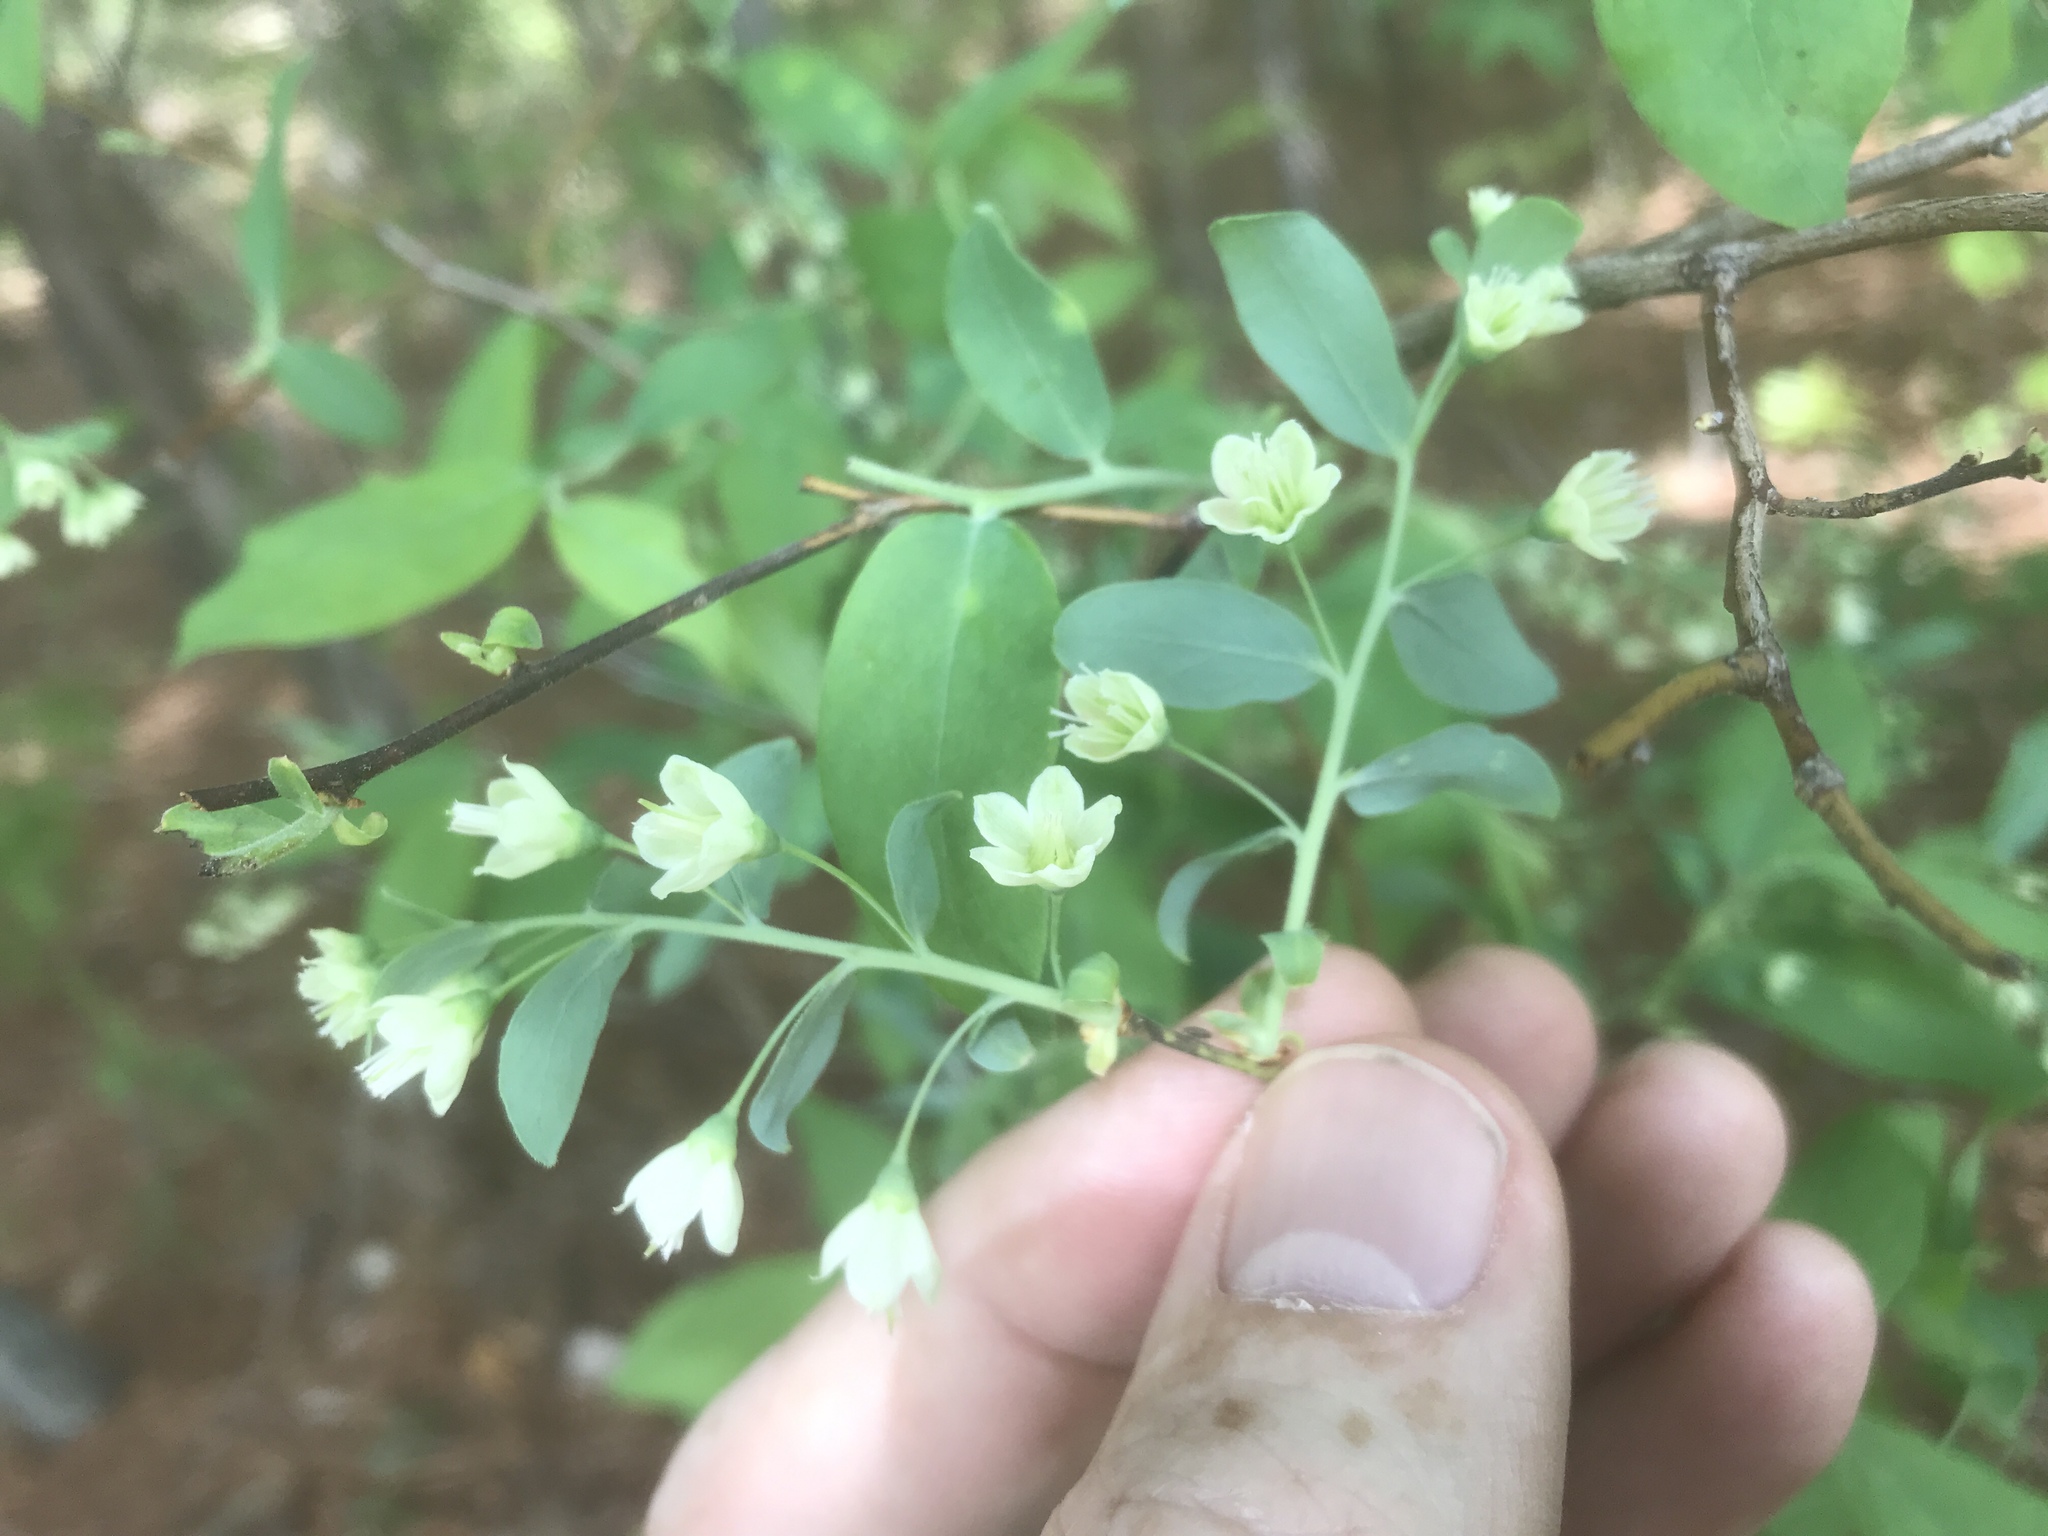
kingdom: Plantae
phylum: Tracheophyta
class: Magnoliopsida
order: Ericales
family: Ericaceae
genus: Vaccinium
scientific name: Vaccinium stamineum
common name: Deerberry
